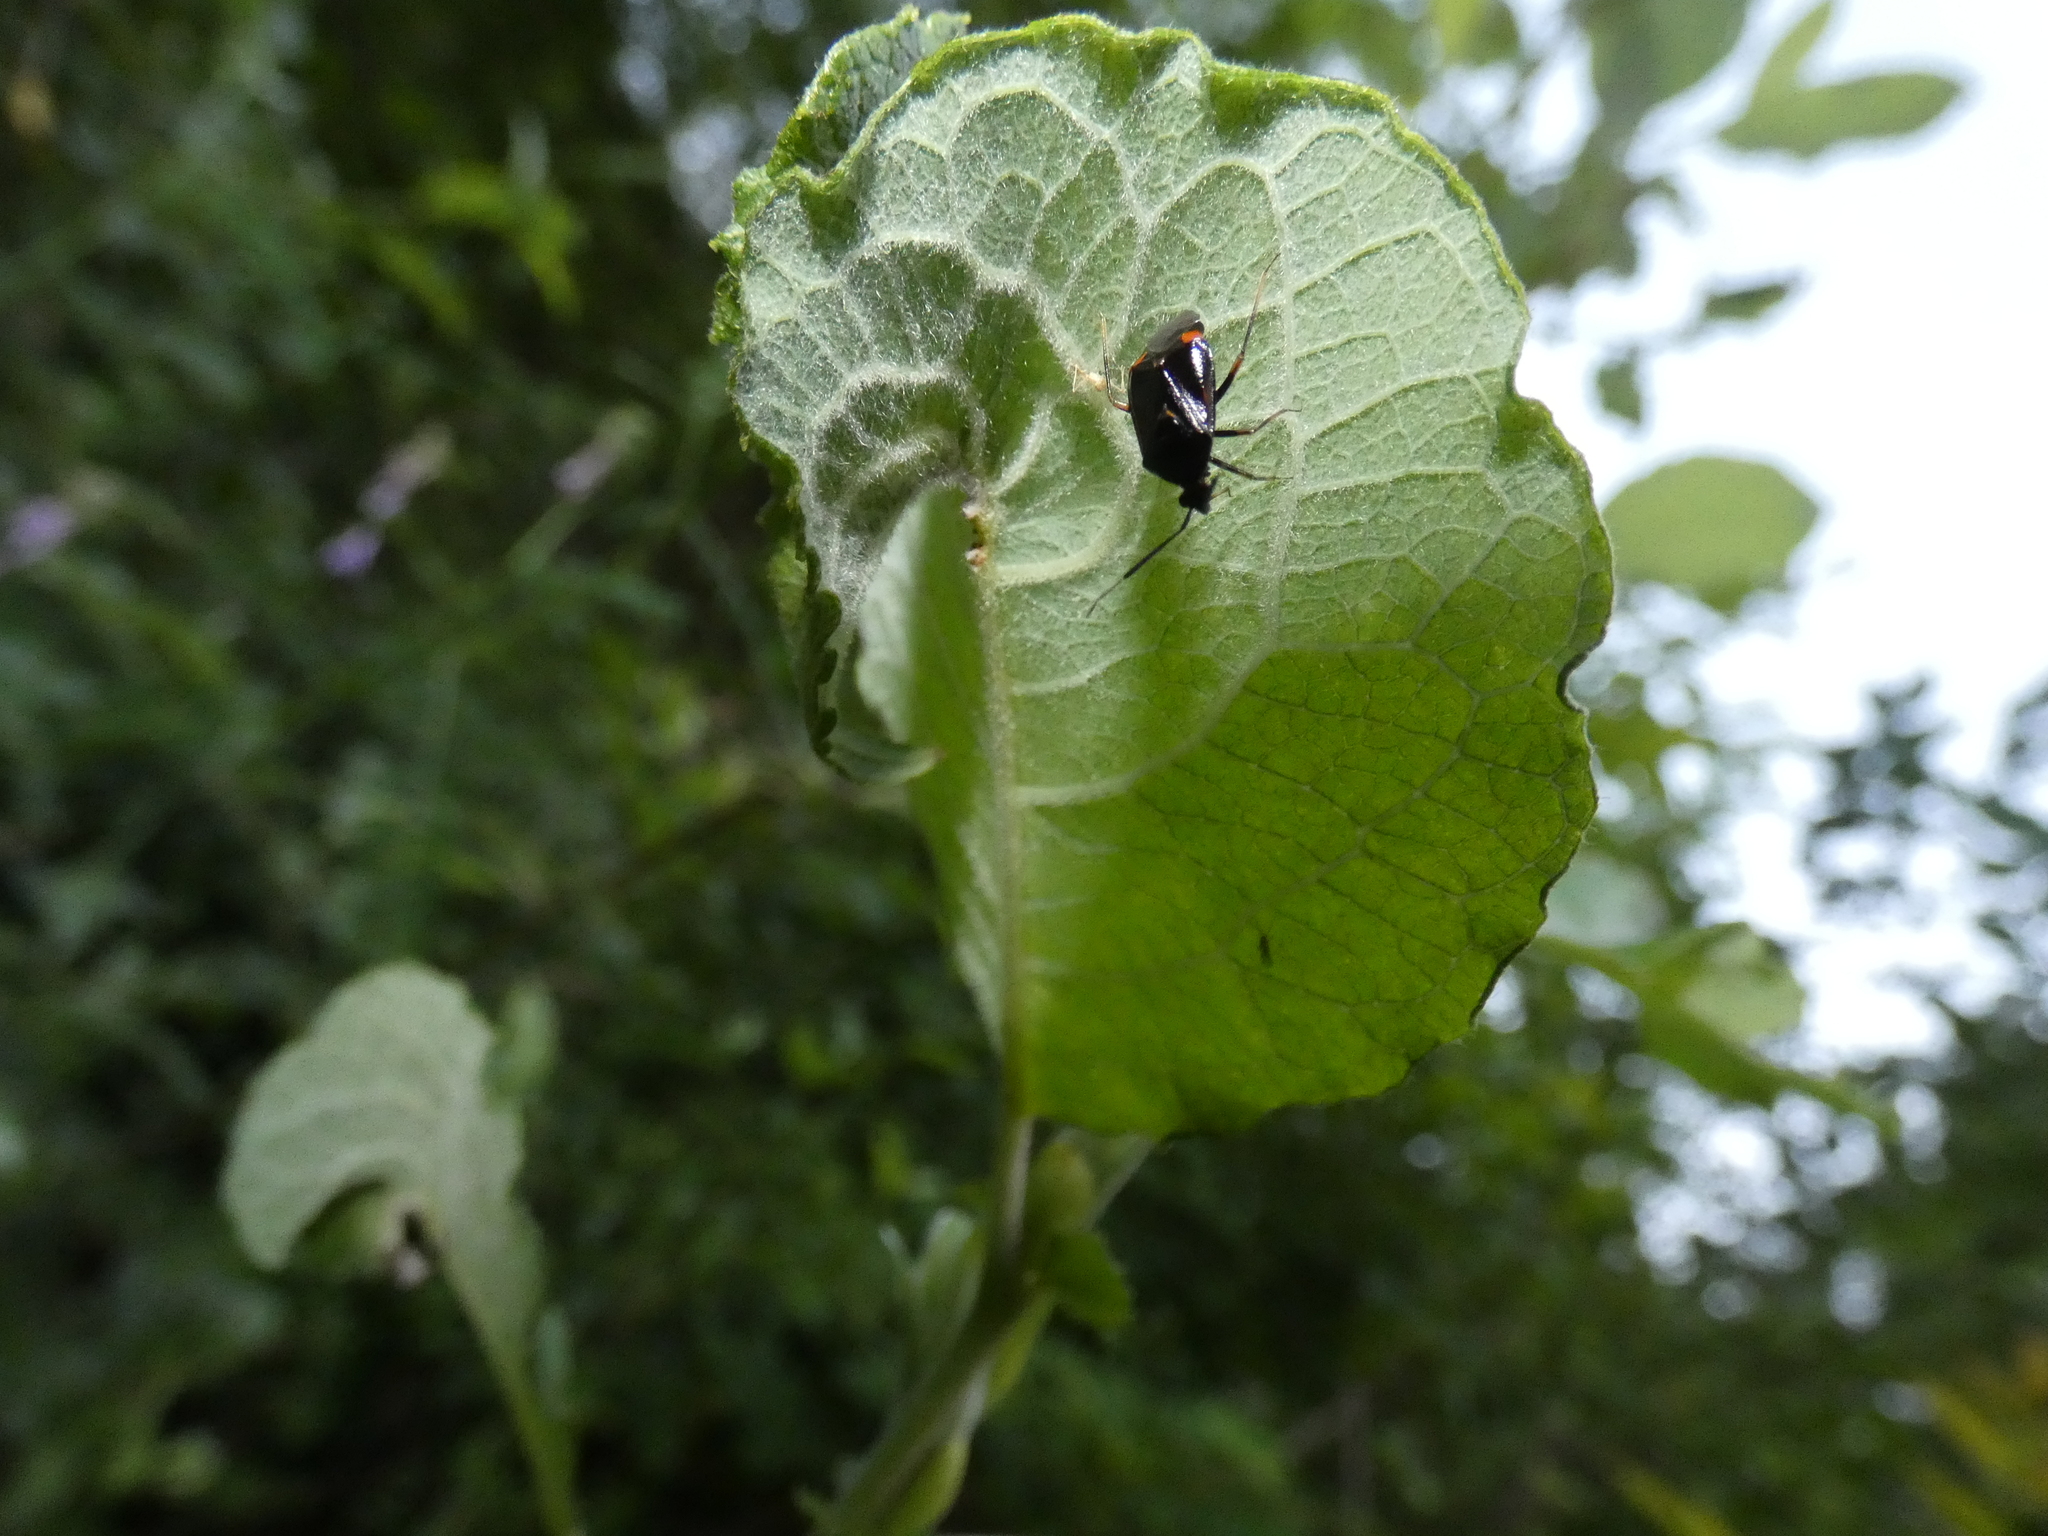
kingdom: Animalia
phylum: Arthropoda
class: Insecta
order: Hemiptera
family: Miridae
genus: Deraeocoris
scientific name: Deraeocoris ruber
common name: Plant bug
